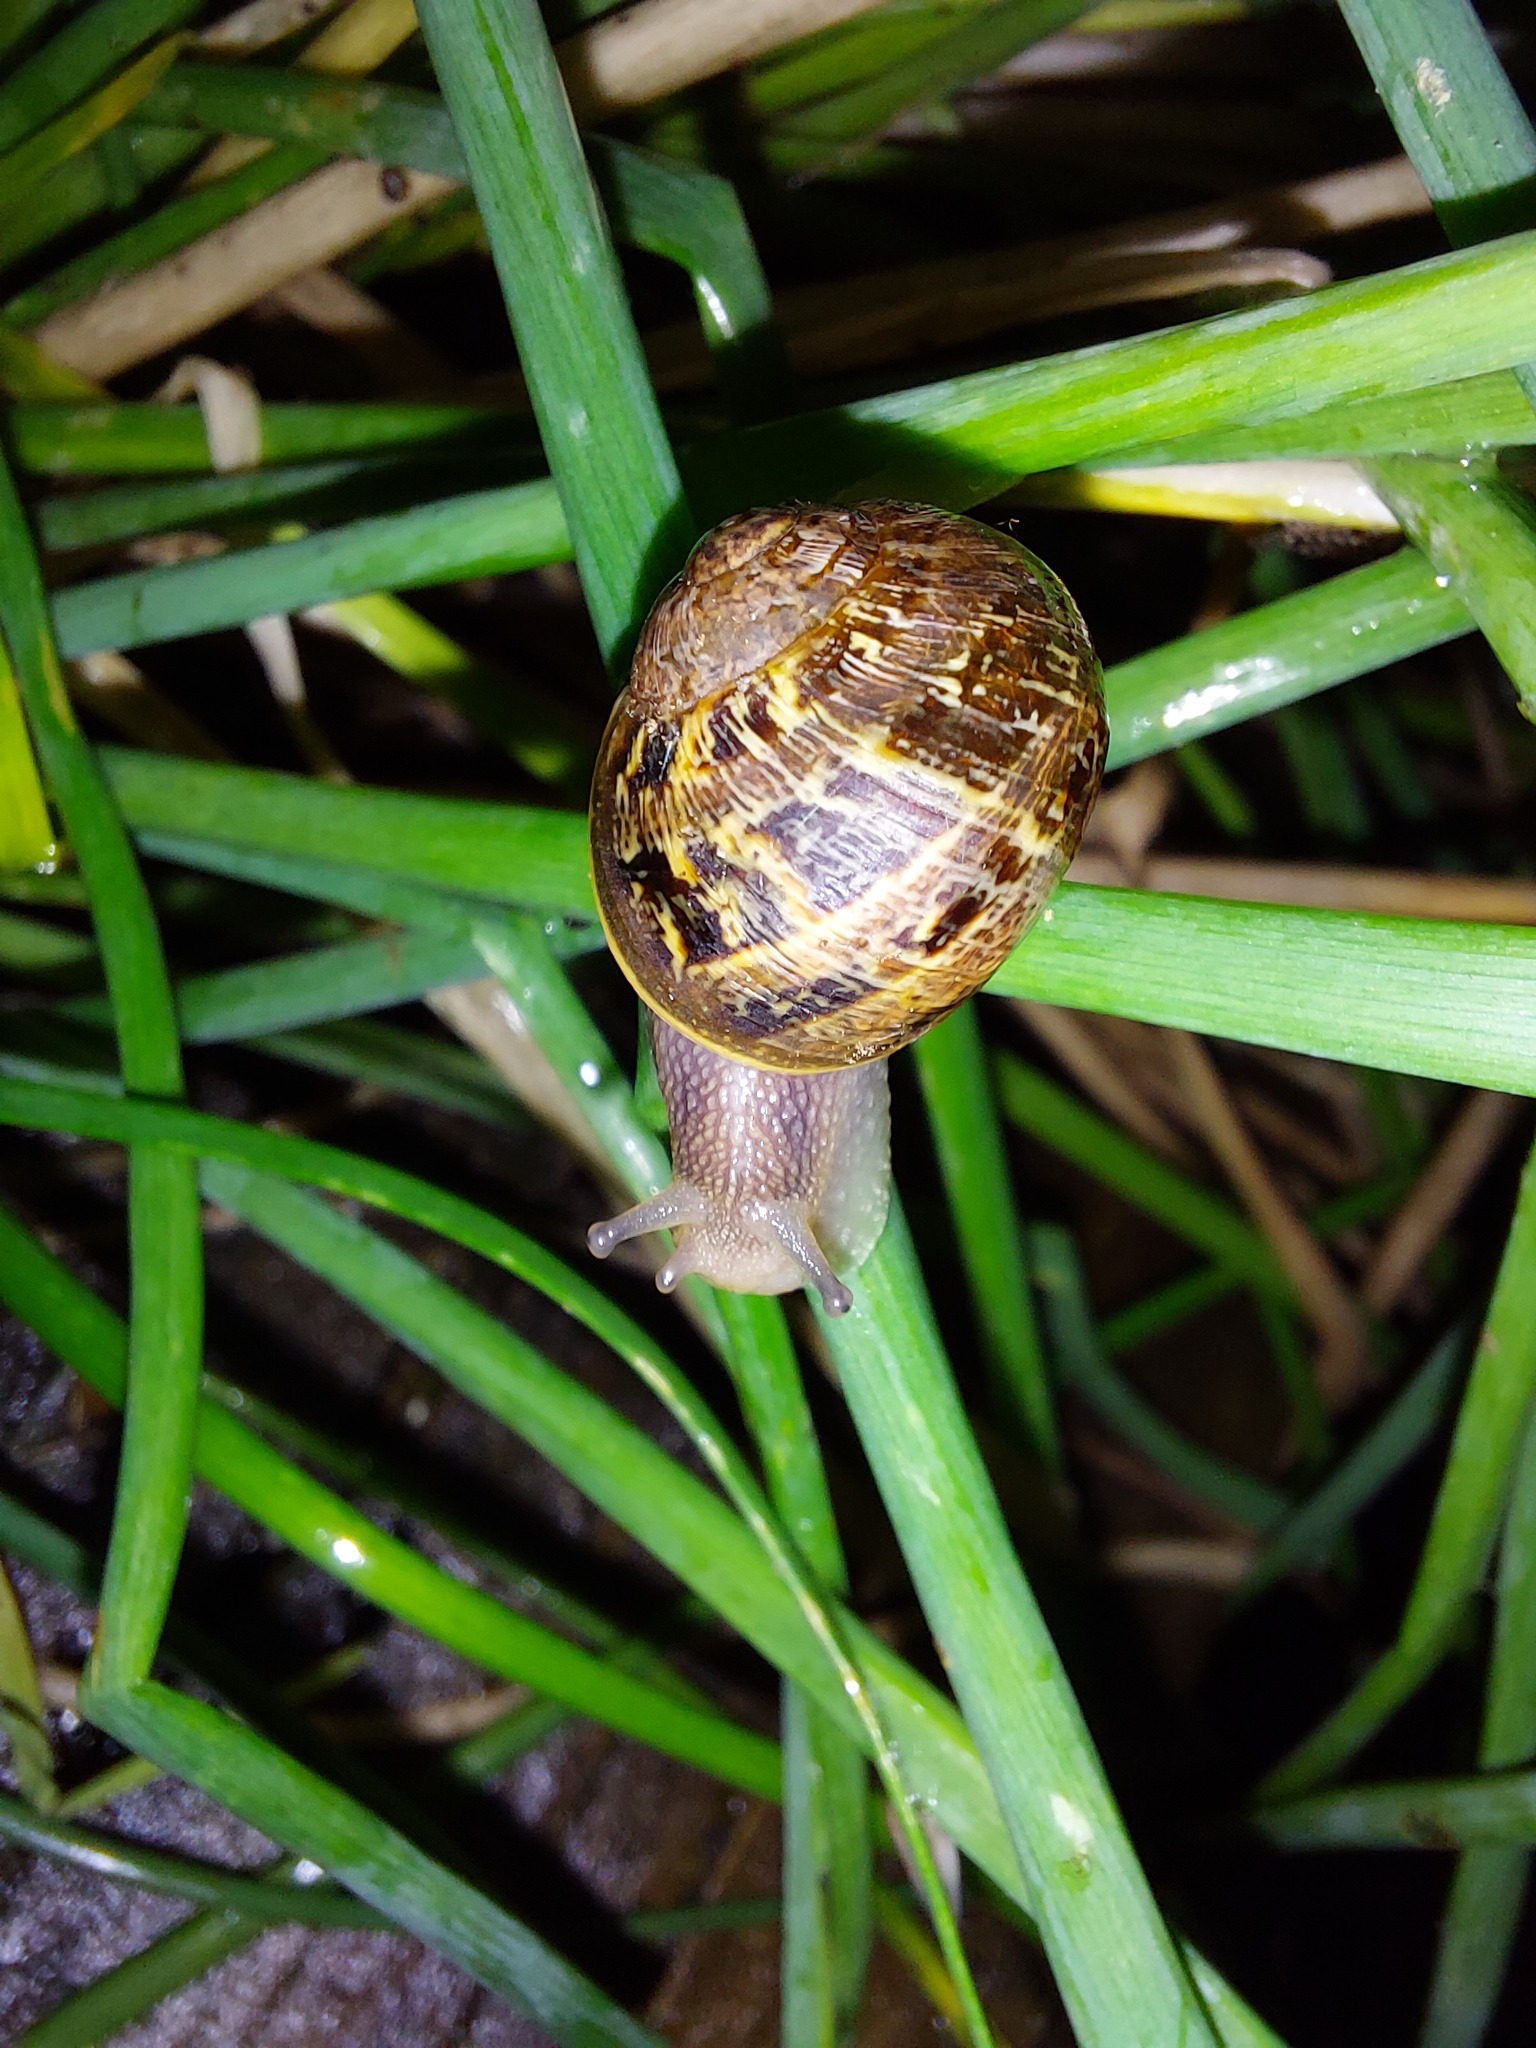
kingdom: Animalia
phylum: Mollusca
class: Gastropoda
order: Stylommatophora
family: Helicidae
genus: Cornu
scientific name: Cornu aspersum
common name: Brown garden snail
